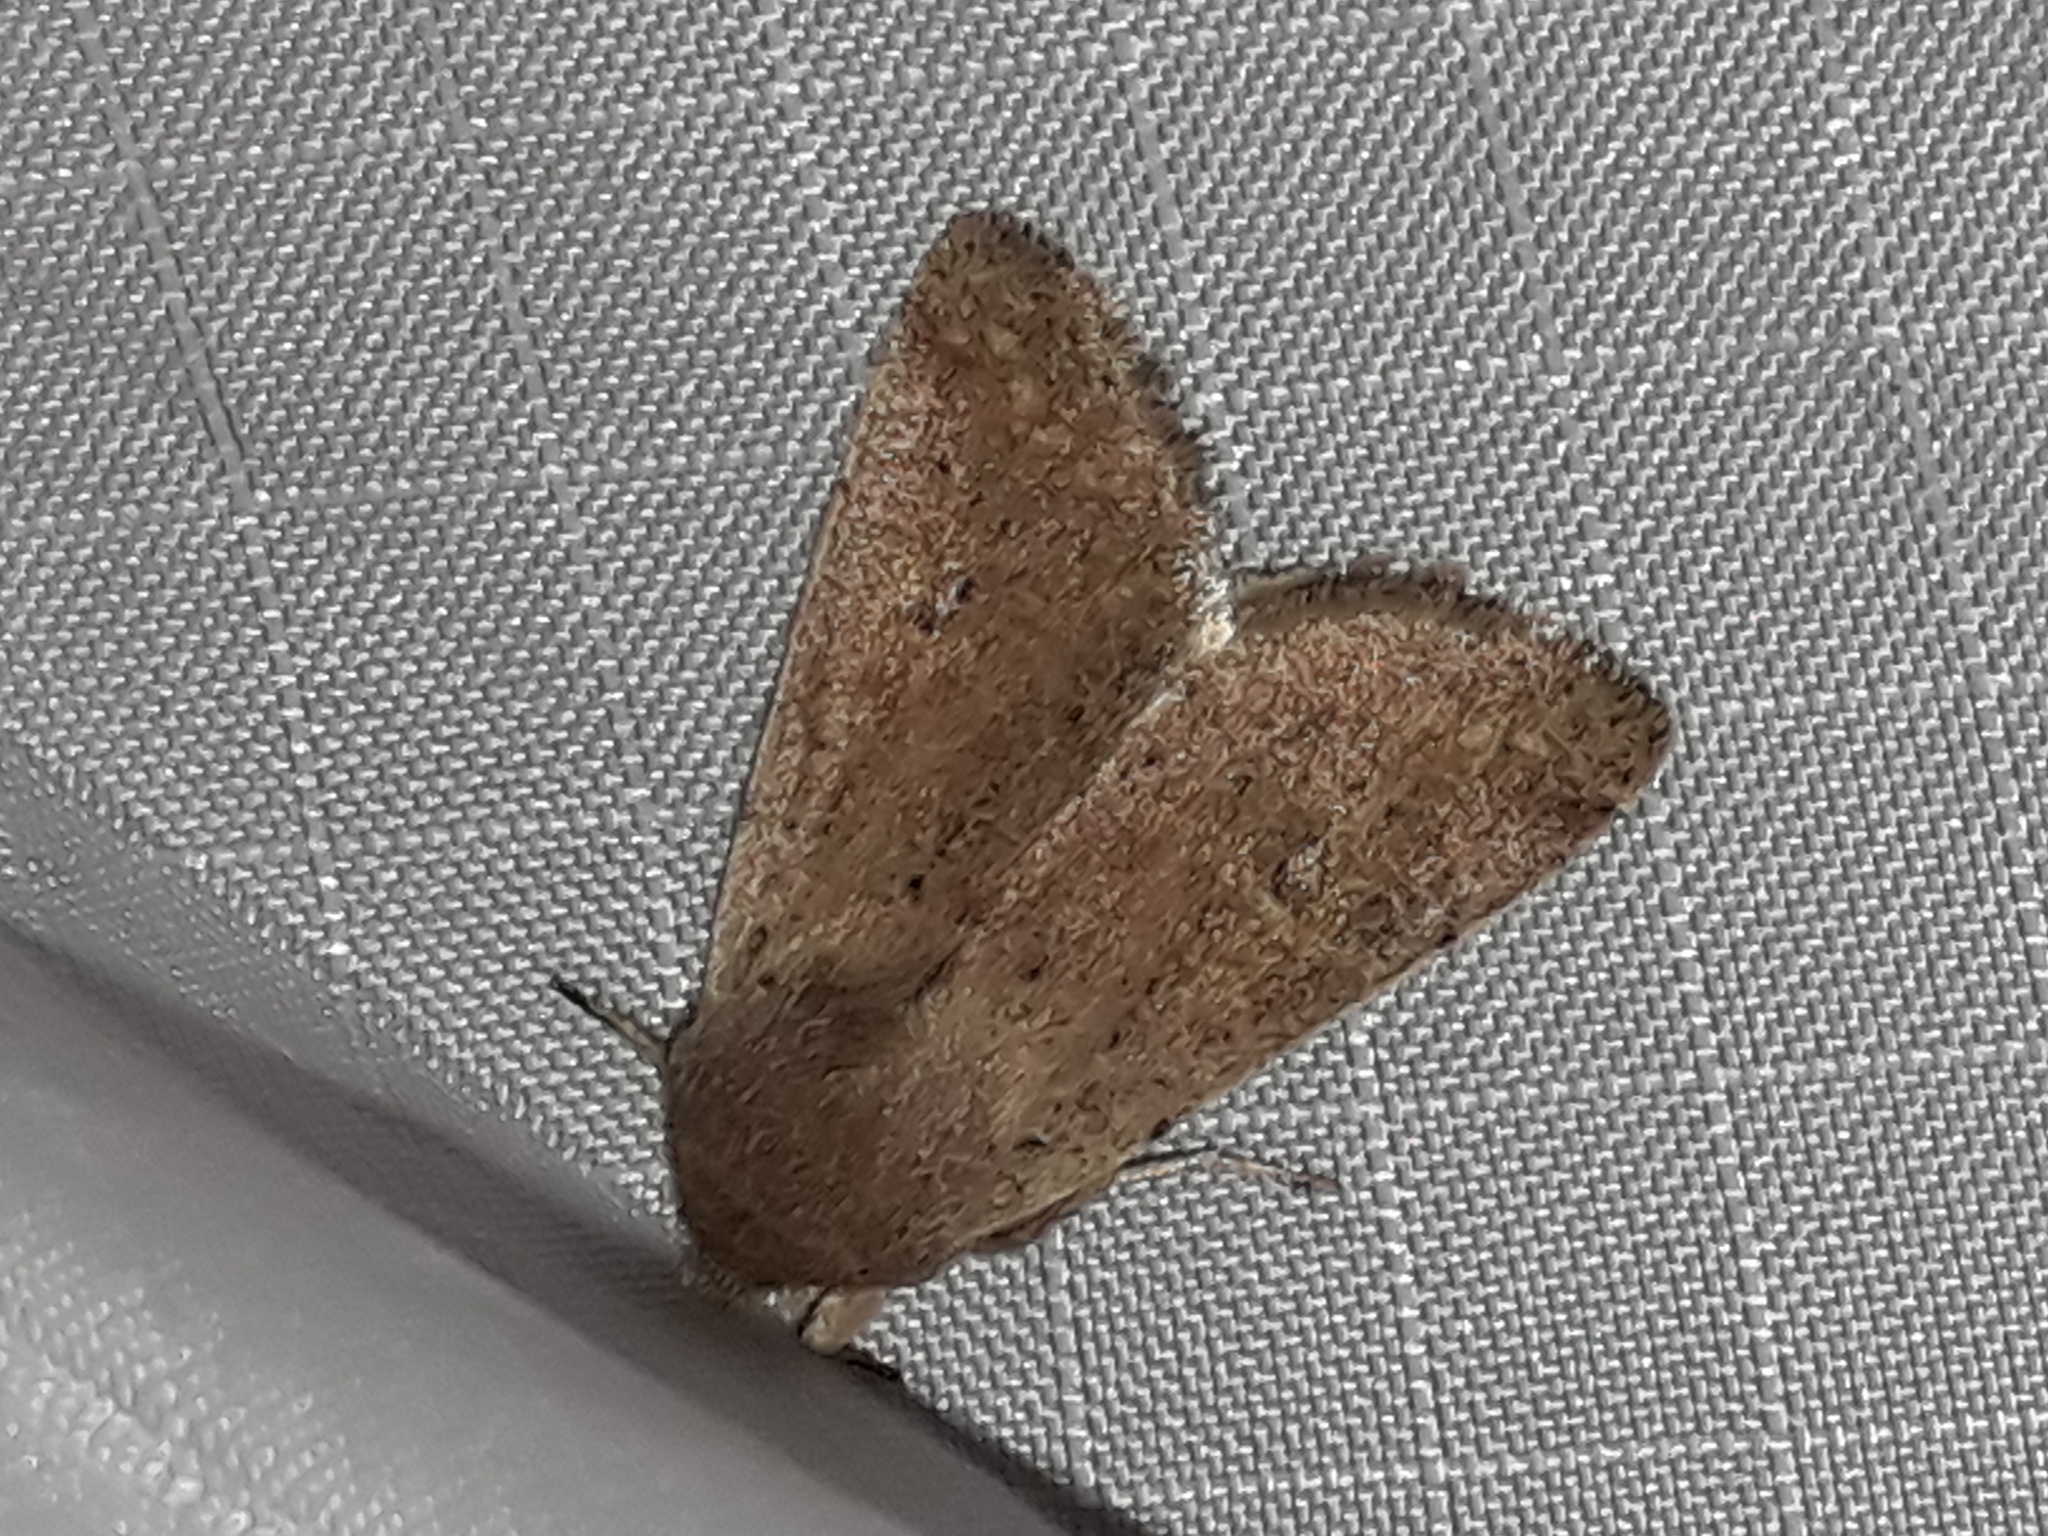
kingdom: Animalia
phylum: Arthropoda
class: Insecta
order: Lepidoptera
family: Noctuidae
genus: Orthosia
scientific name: Orthosia cruda
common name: Small quaker
